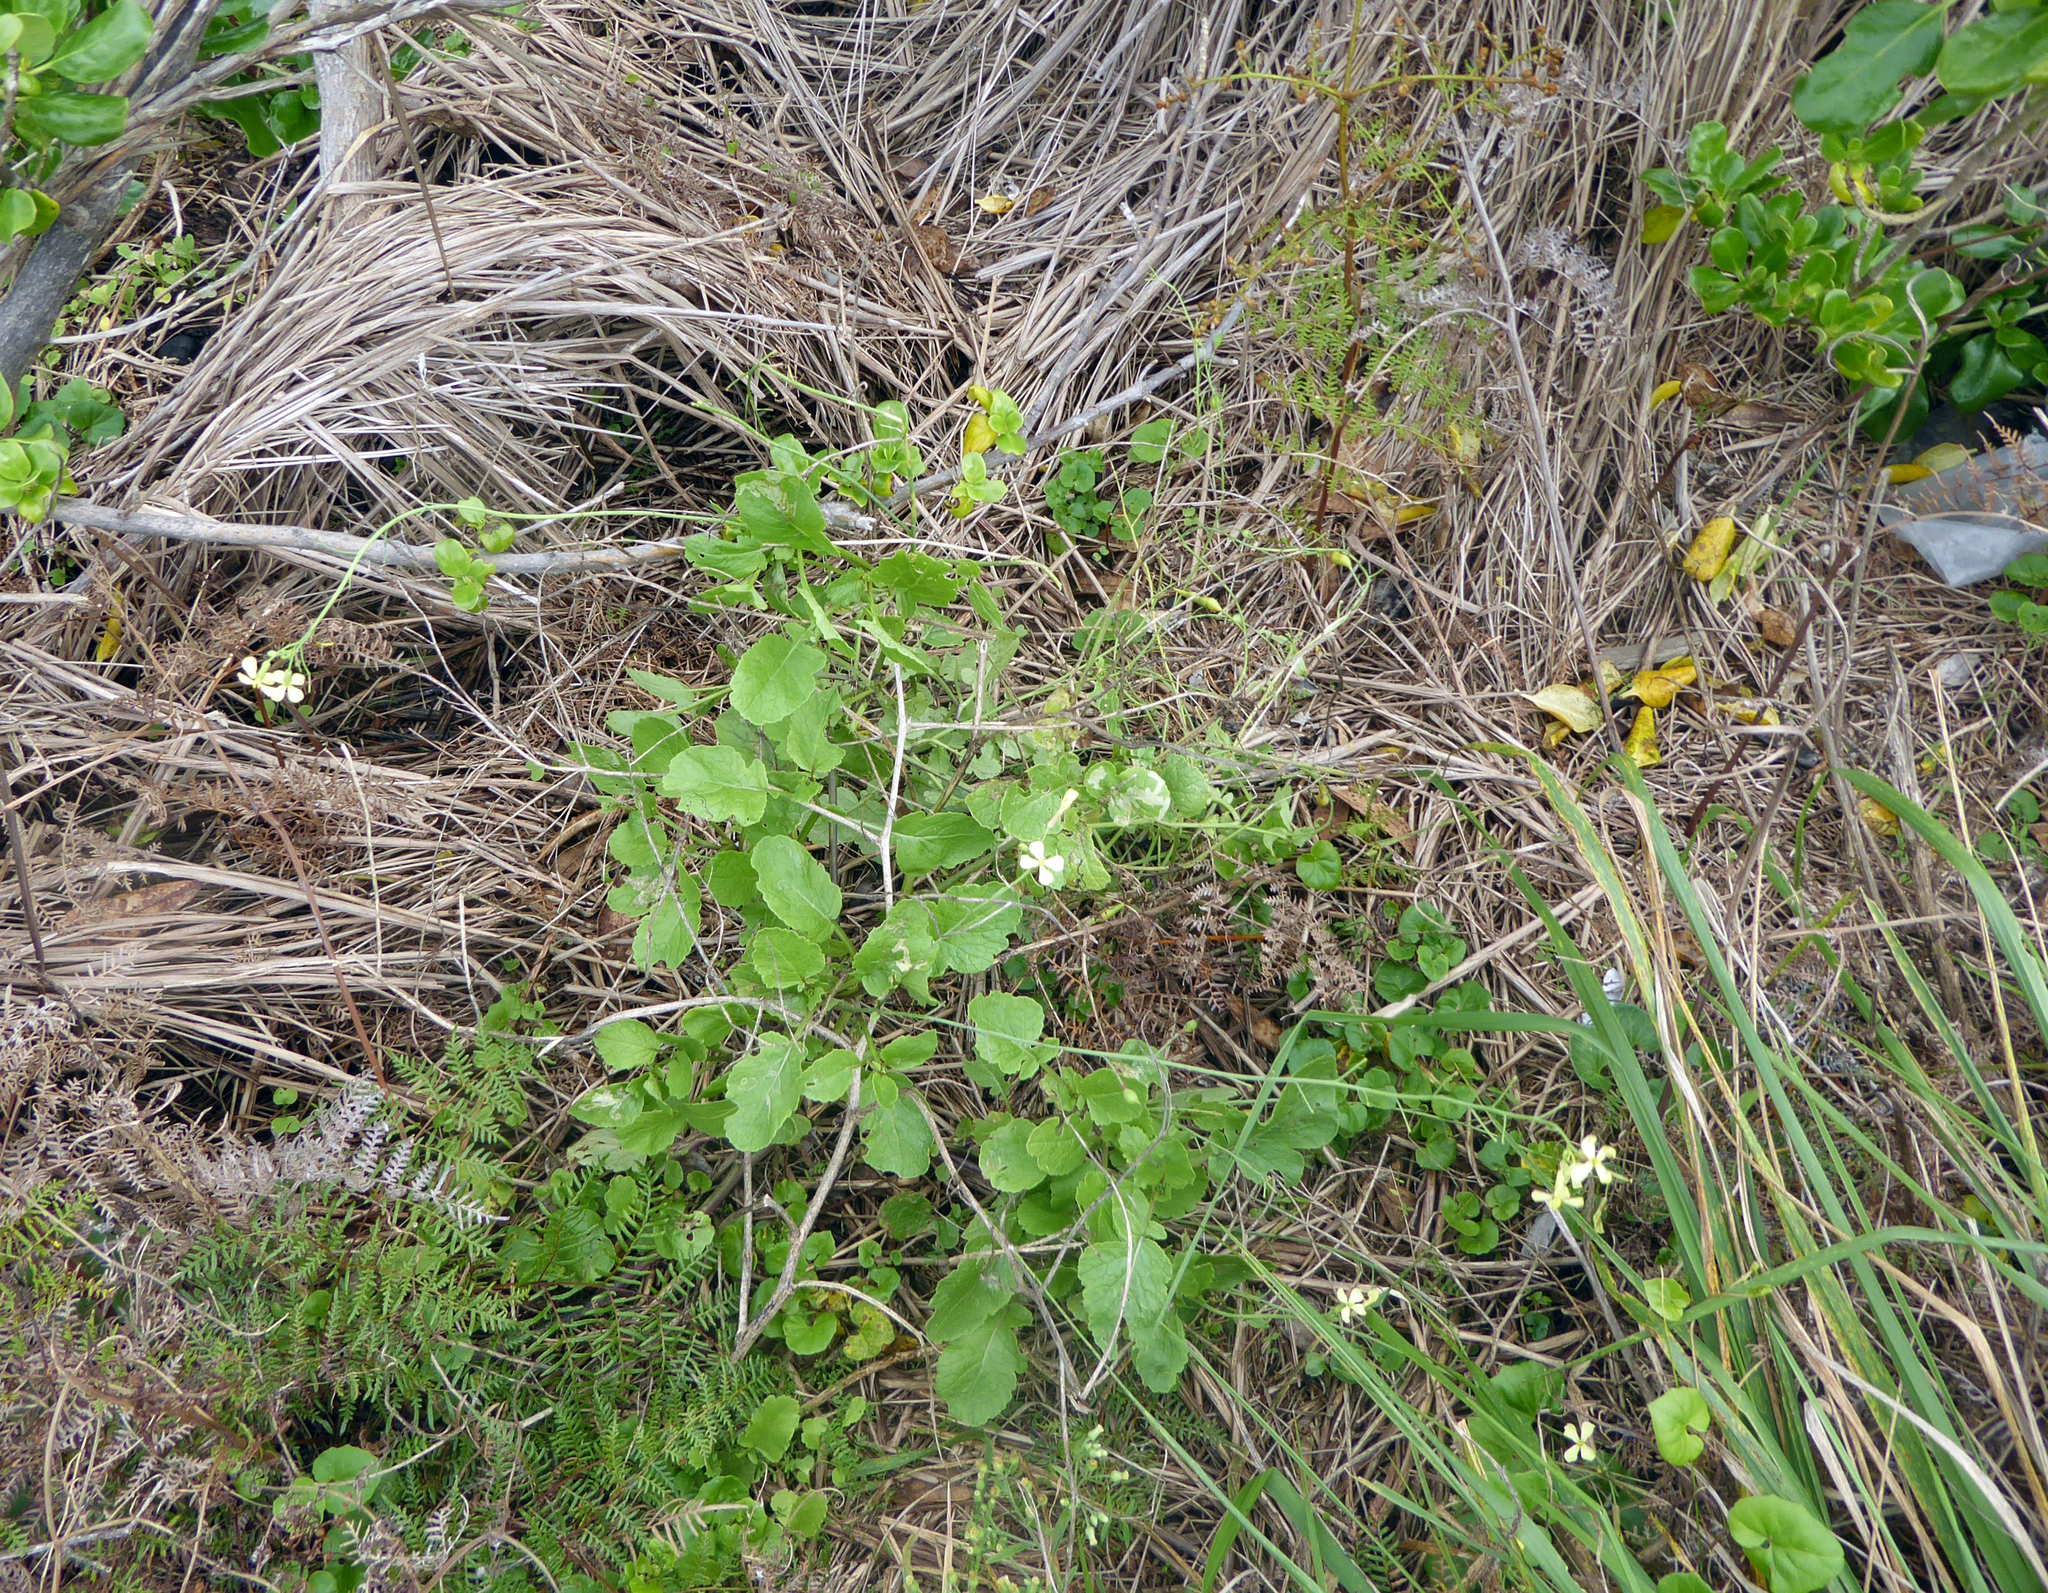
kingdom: Plantae
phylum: Tracheophyta
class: Magnoliopsida
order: Brassicales
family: Brassicaceae
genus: Raphanus
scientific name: Raphanus raphanistrum
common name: Wild radish
